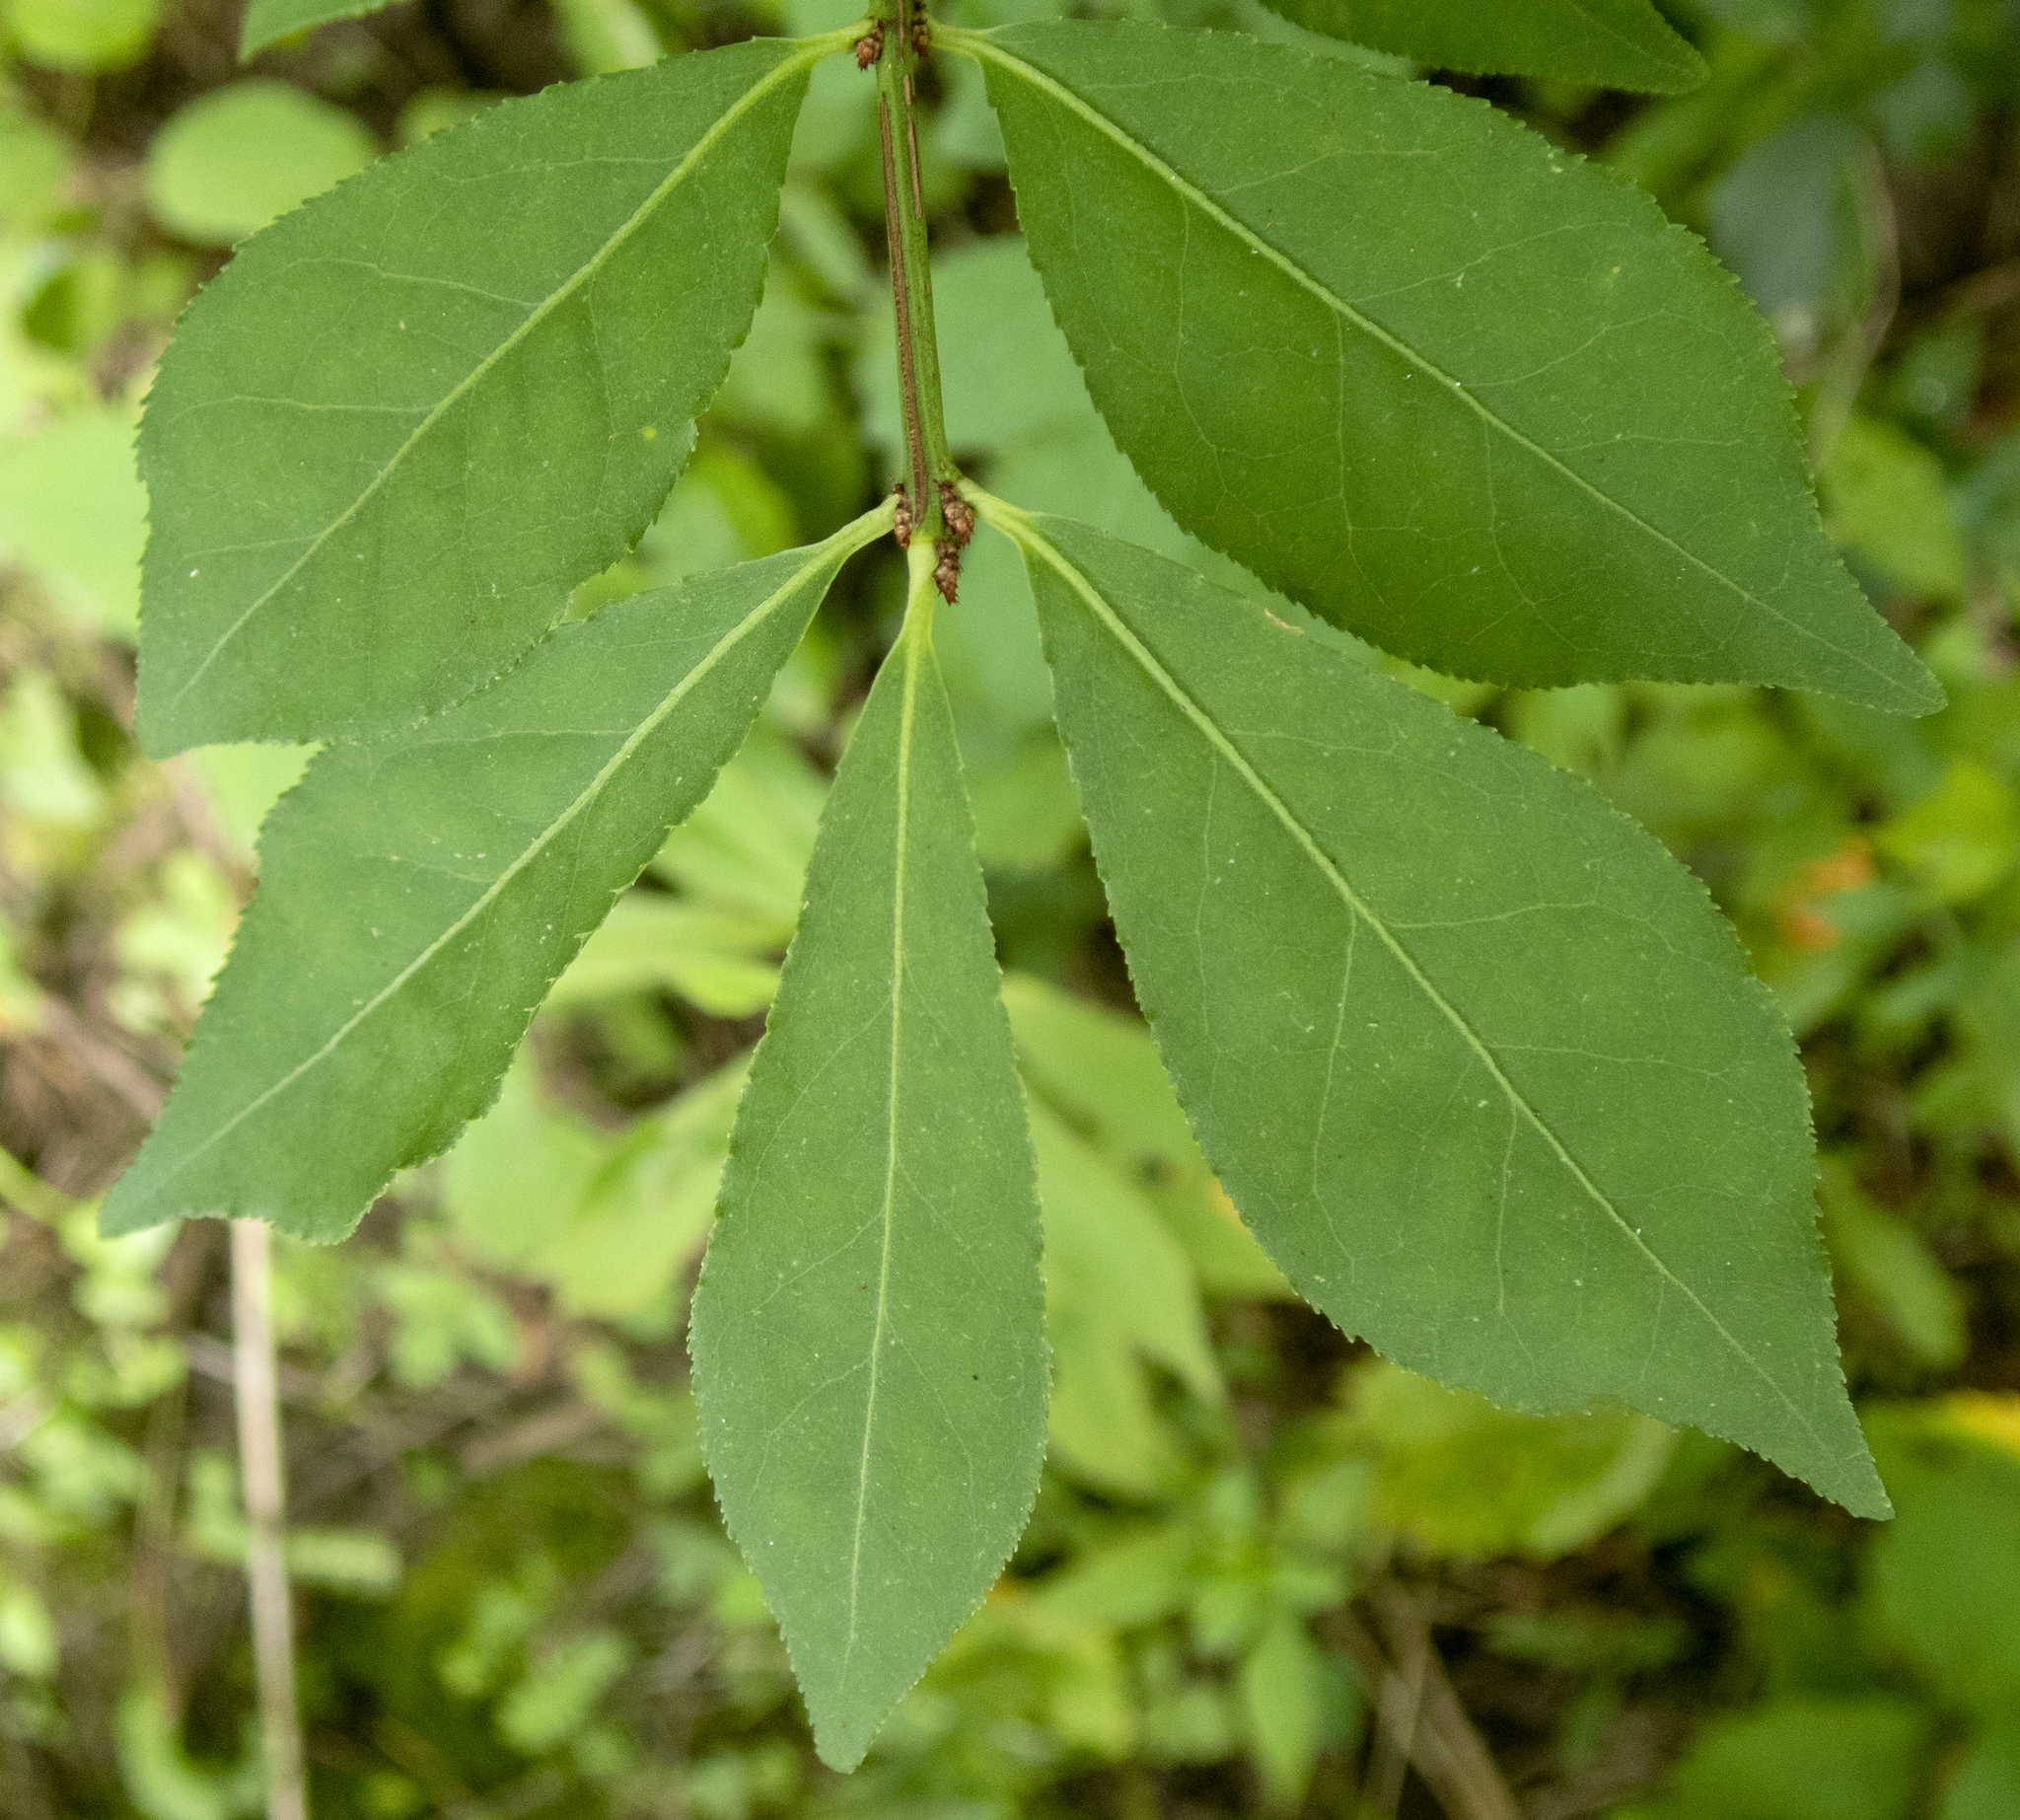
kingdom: Plantae
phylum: Tracheophyta
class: Magnoliopsida
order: Celastrales
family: Celastraceae
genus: Euonymus
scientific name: Euonymus alatus
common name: Winged euonymus
